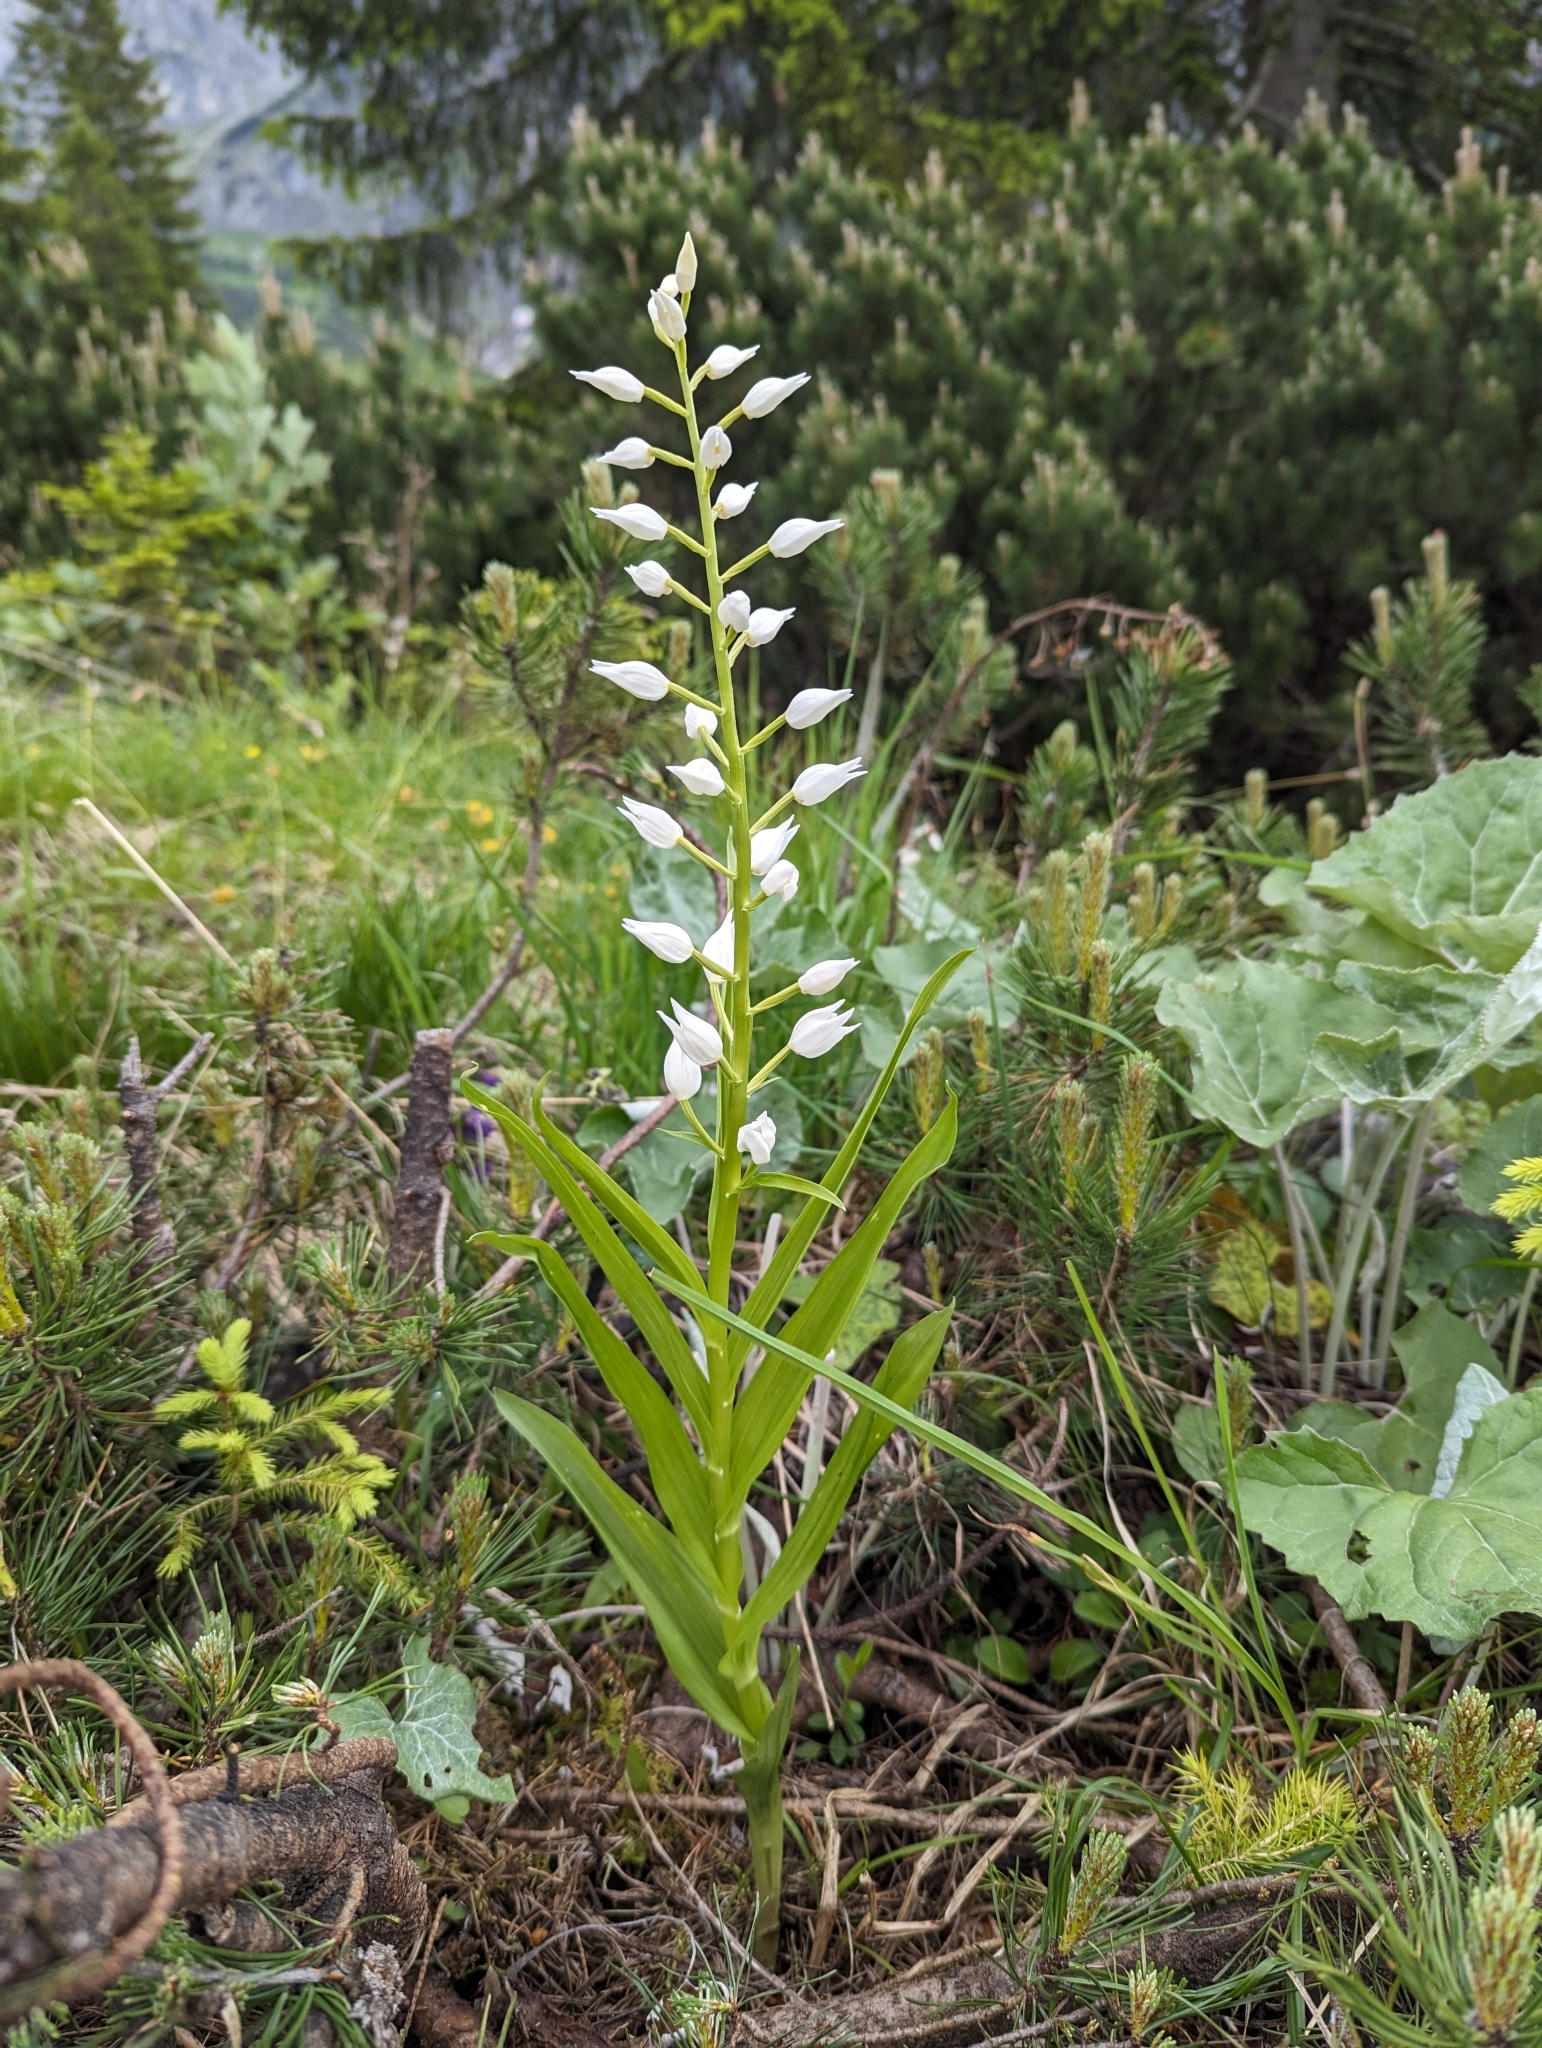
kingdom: Plantae
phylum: Tracheophyta
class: Liliopsida
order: Asparagales
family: Orchidaceae
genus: Cephalanthera
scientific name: Cephalanthera longifolia
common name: Narrow-leaved helleborine
